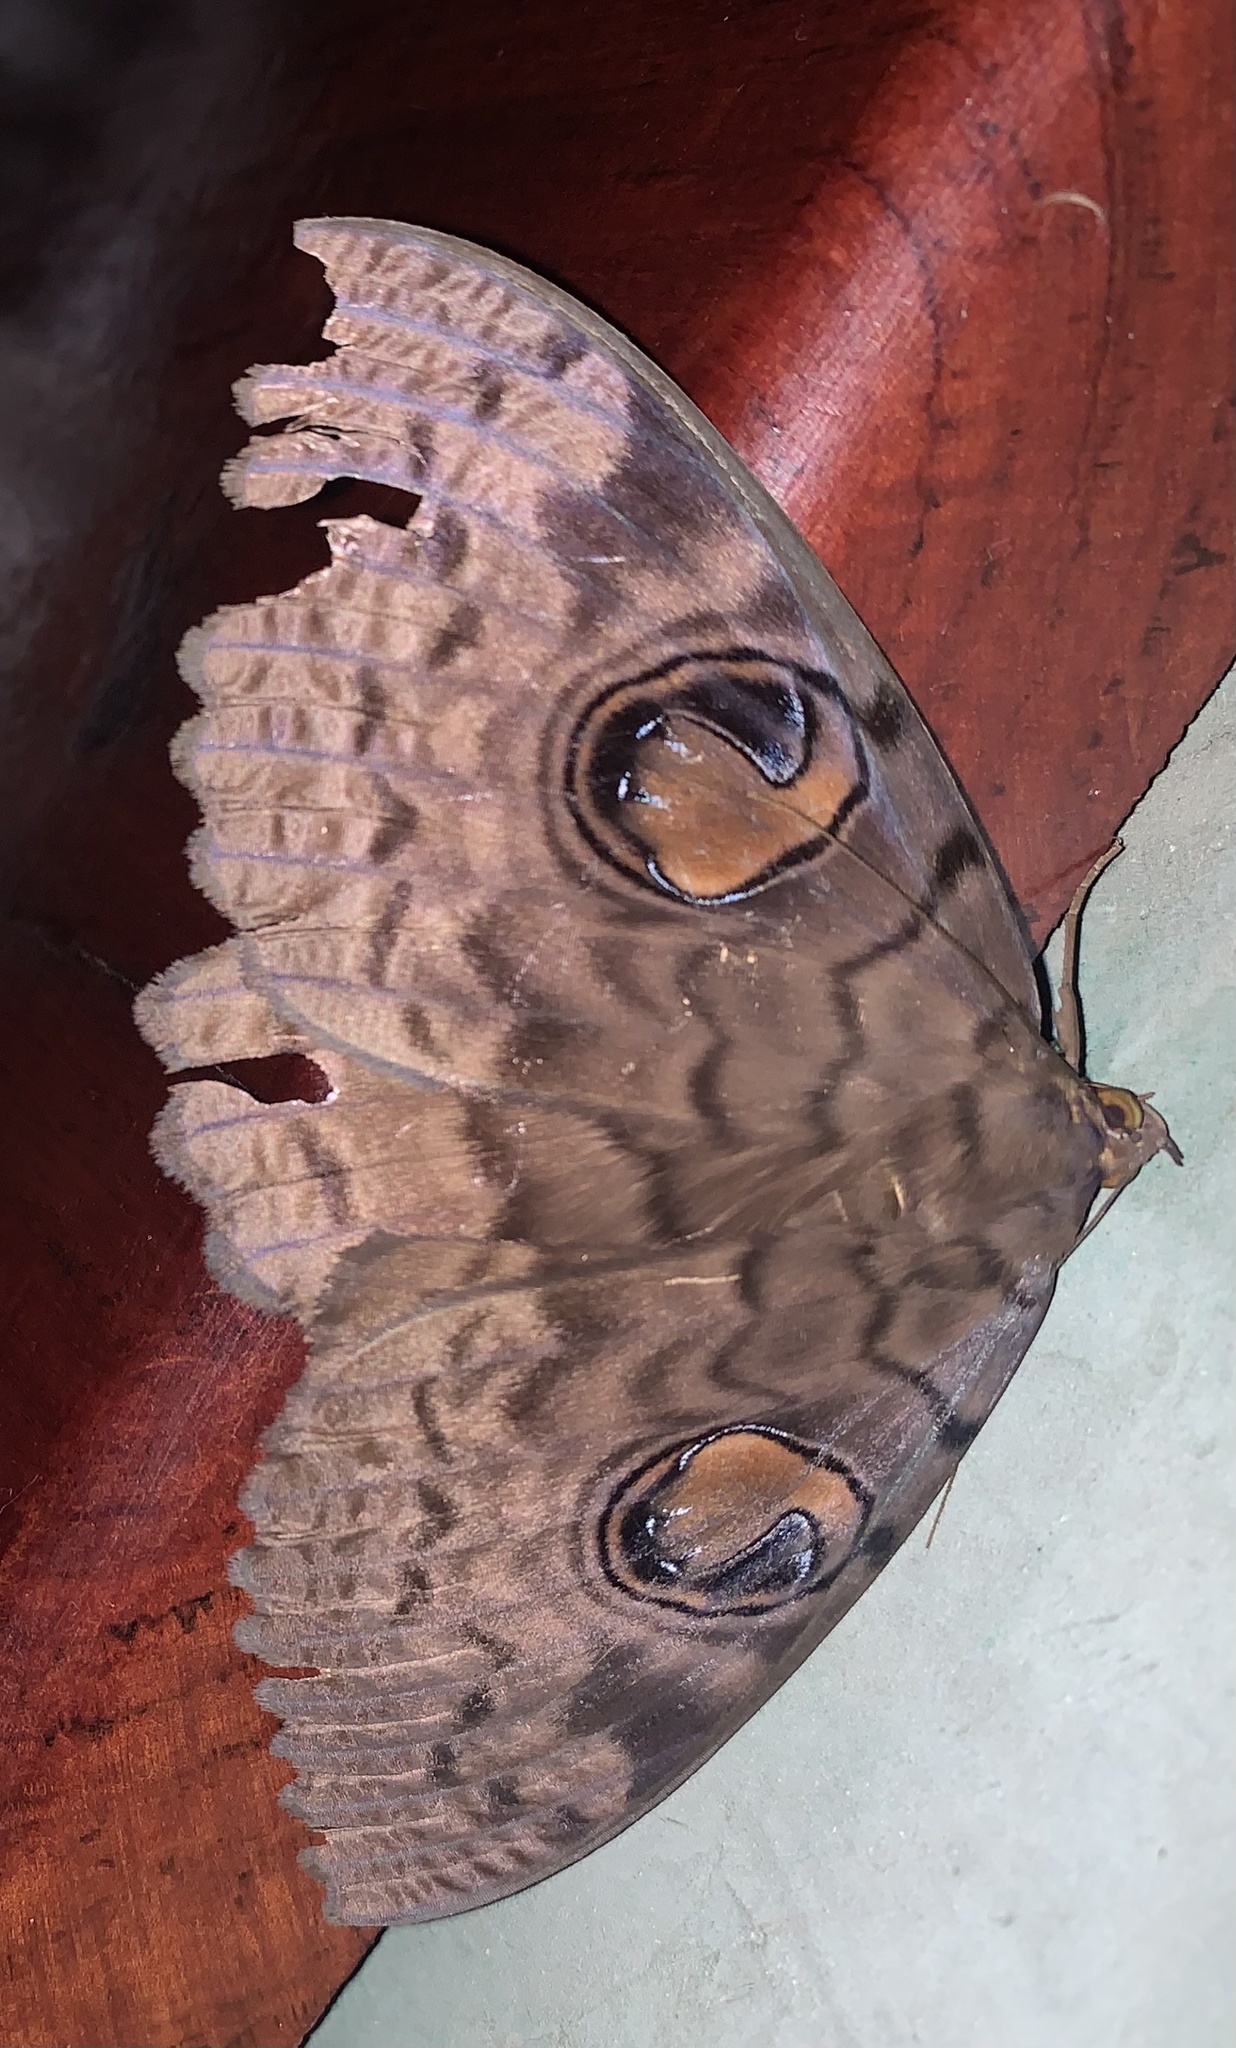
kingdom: Animalia
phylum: Arthropoda
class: Insecta
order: Lepidoptera
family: Erebidae
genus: Erebus
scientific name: Erebus walkeri
